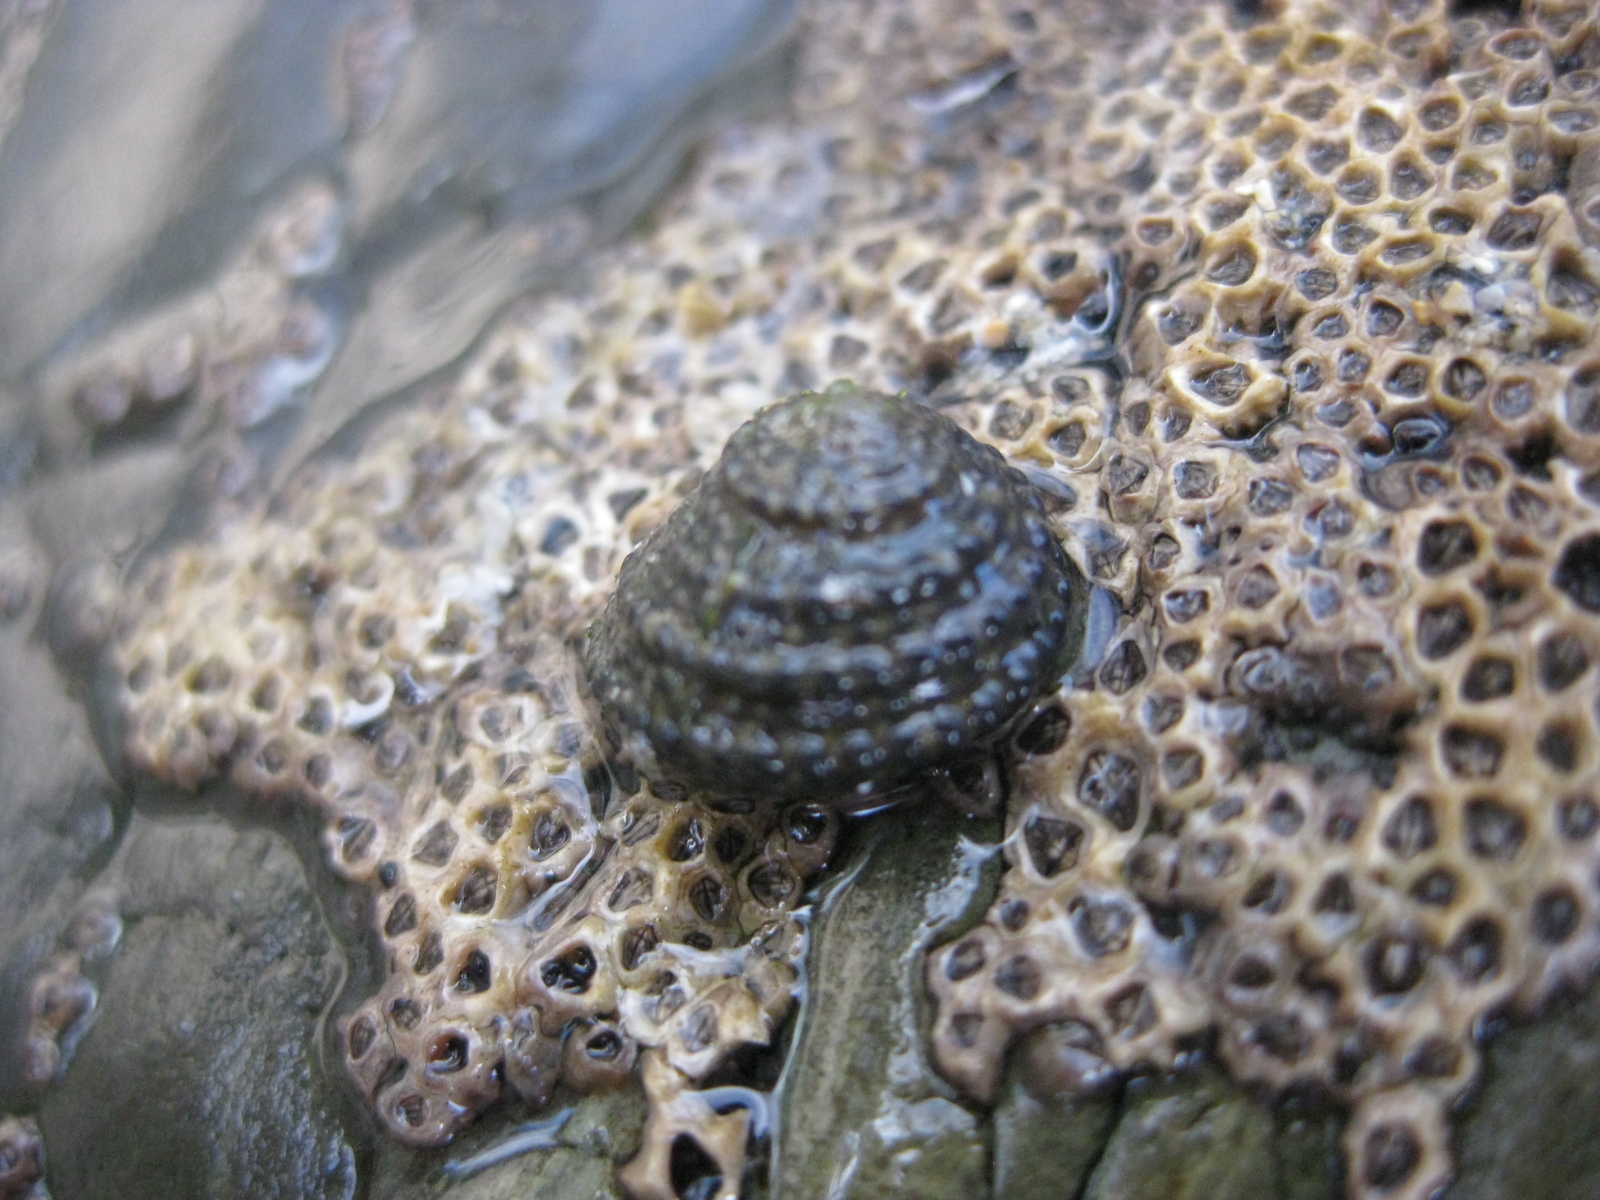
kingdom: Animalia
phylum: Mollusca
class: Gastropoda
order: Trochida
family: Trochidae
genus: Diloma
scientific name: Diloma bicanaliculatum
